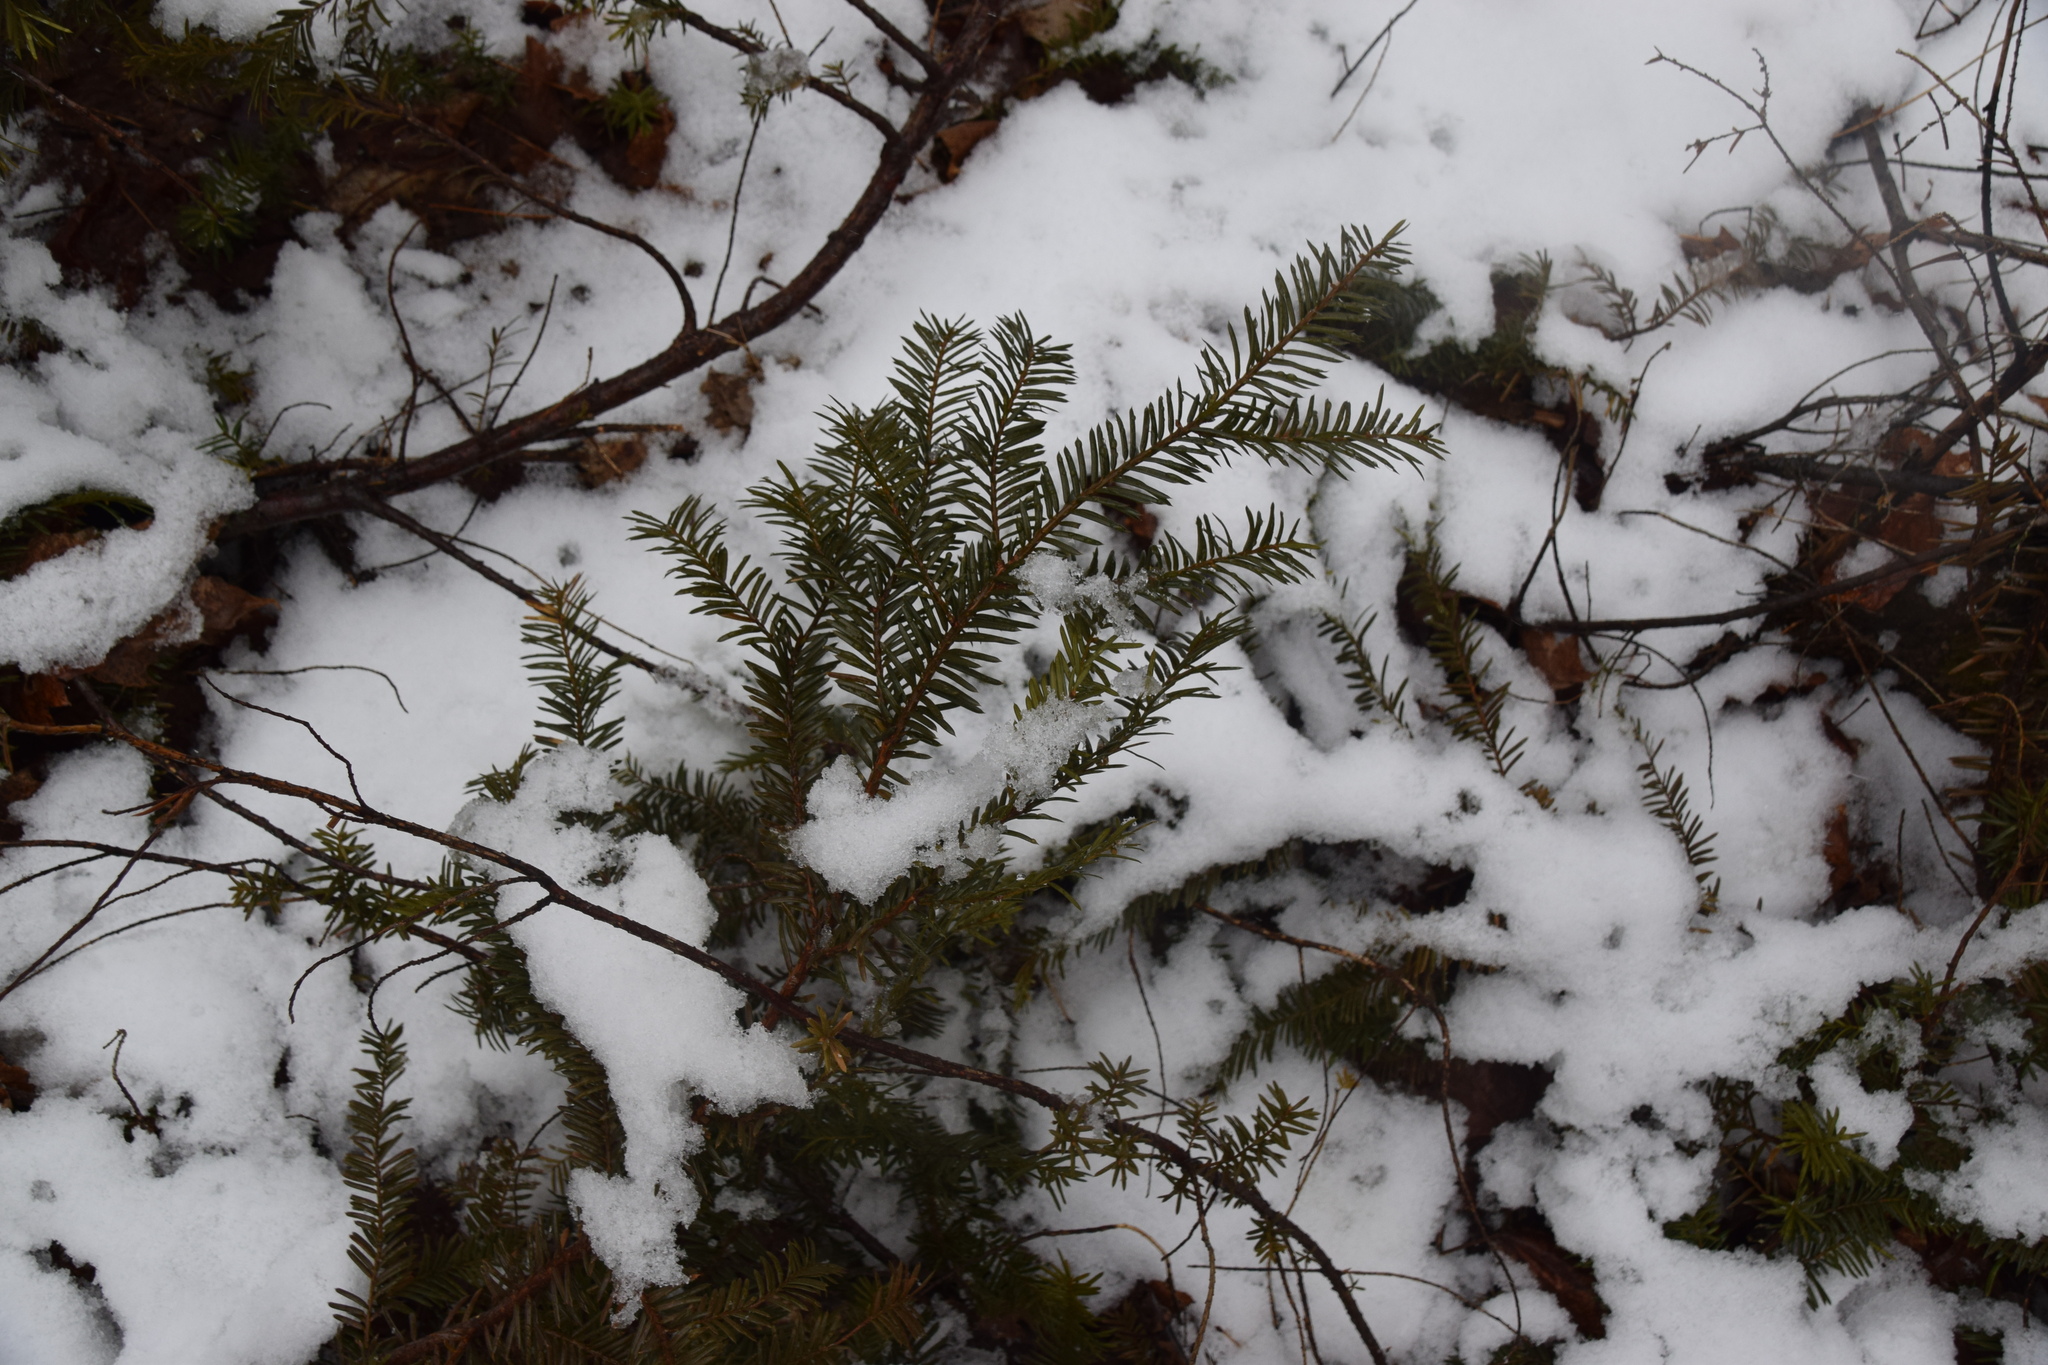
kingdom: Plantae
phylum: Tracheophyta
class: Pinopsida
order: Pinales
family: Taxaceae
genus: Taxus
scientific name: Taxus canadensis
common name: American yew
